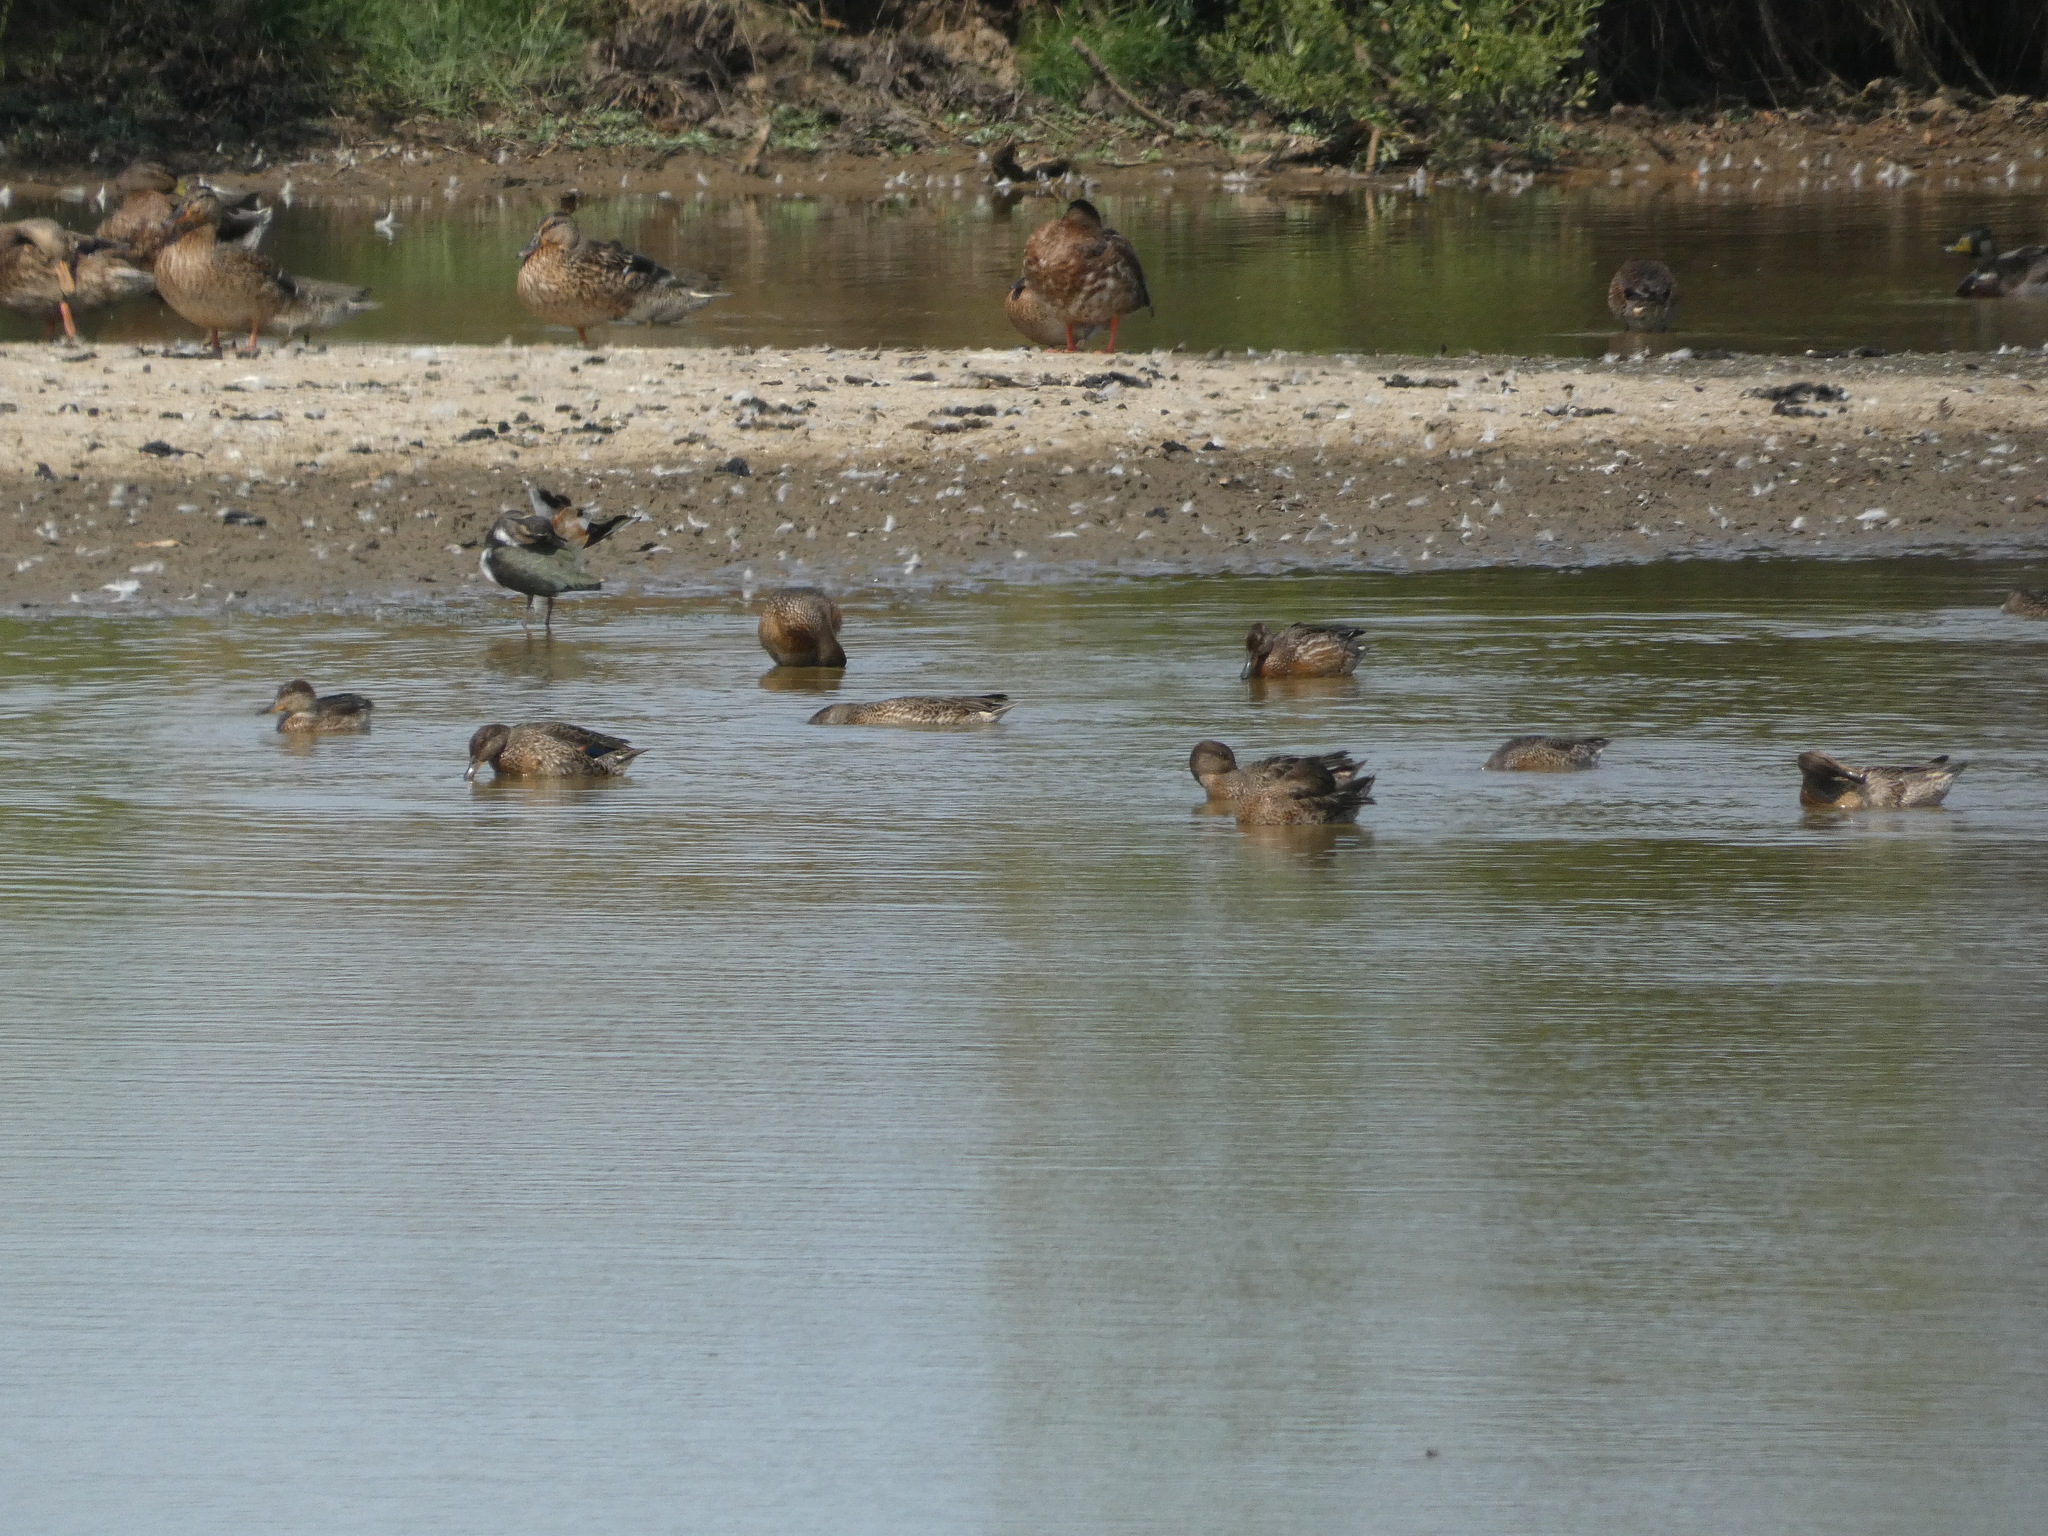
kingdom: Animalia
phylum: Chordata
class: Aves
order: Anseriformes
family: Anatidae
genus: Anas
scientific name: Anas crecca
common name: Eurasian teal
